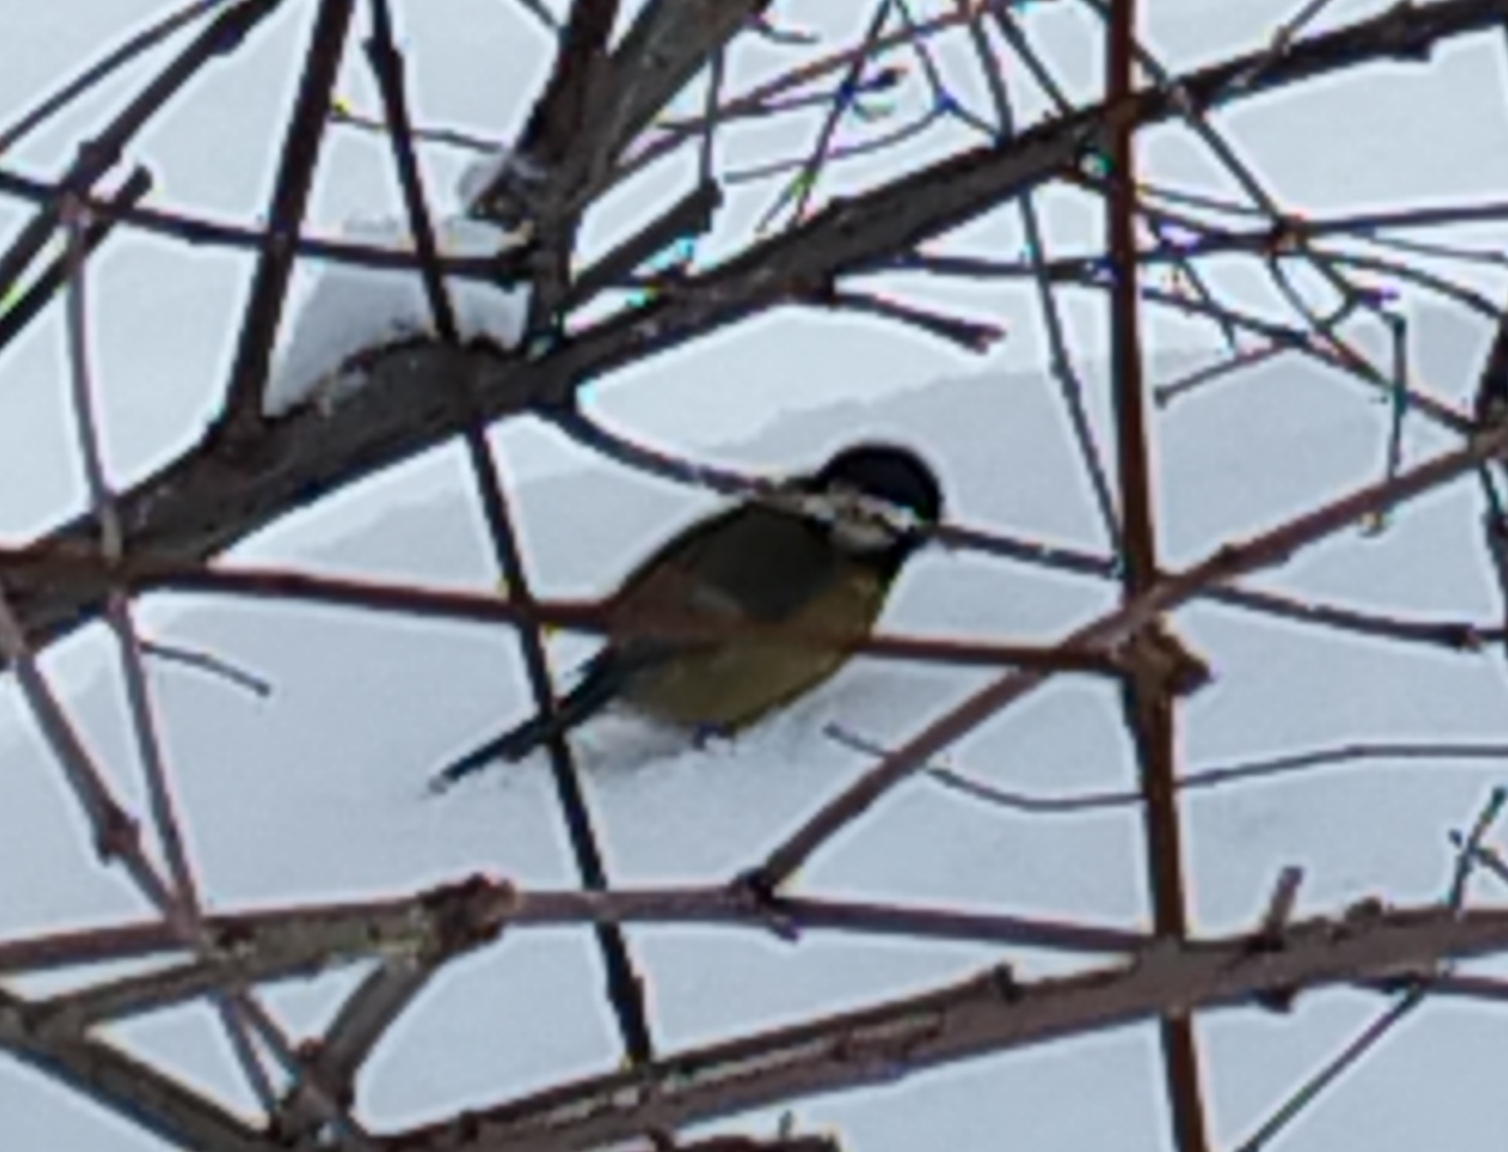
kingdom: Animalia
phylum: Chordata
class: Aves
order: Passeriformes
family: Paridae
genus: Parus
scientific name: Parus major
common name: Great tit
